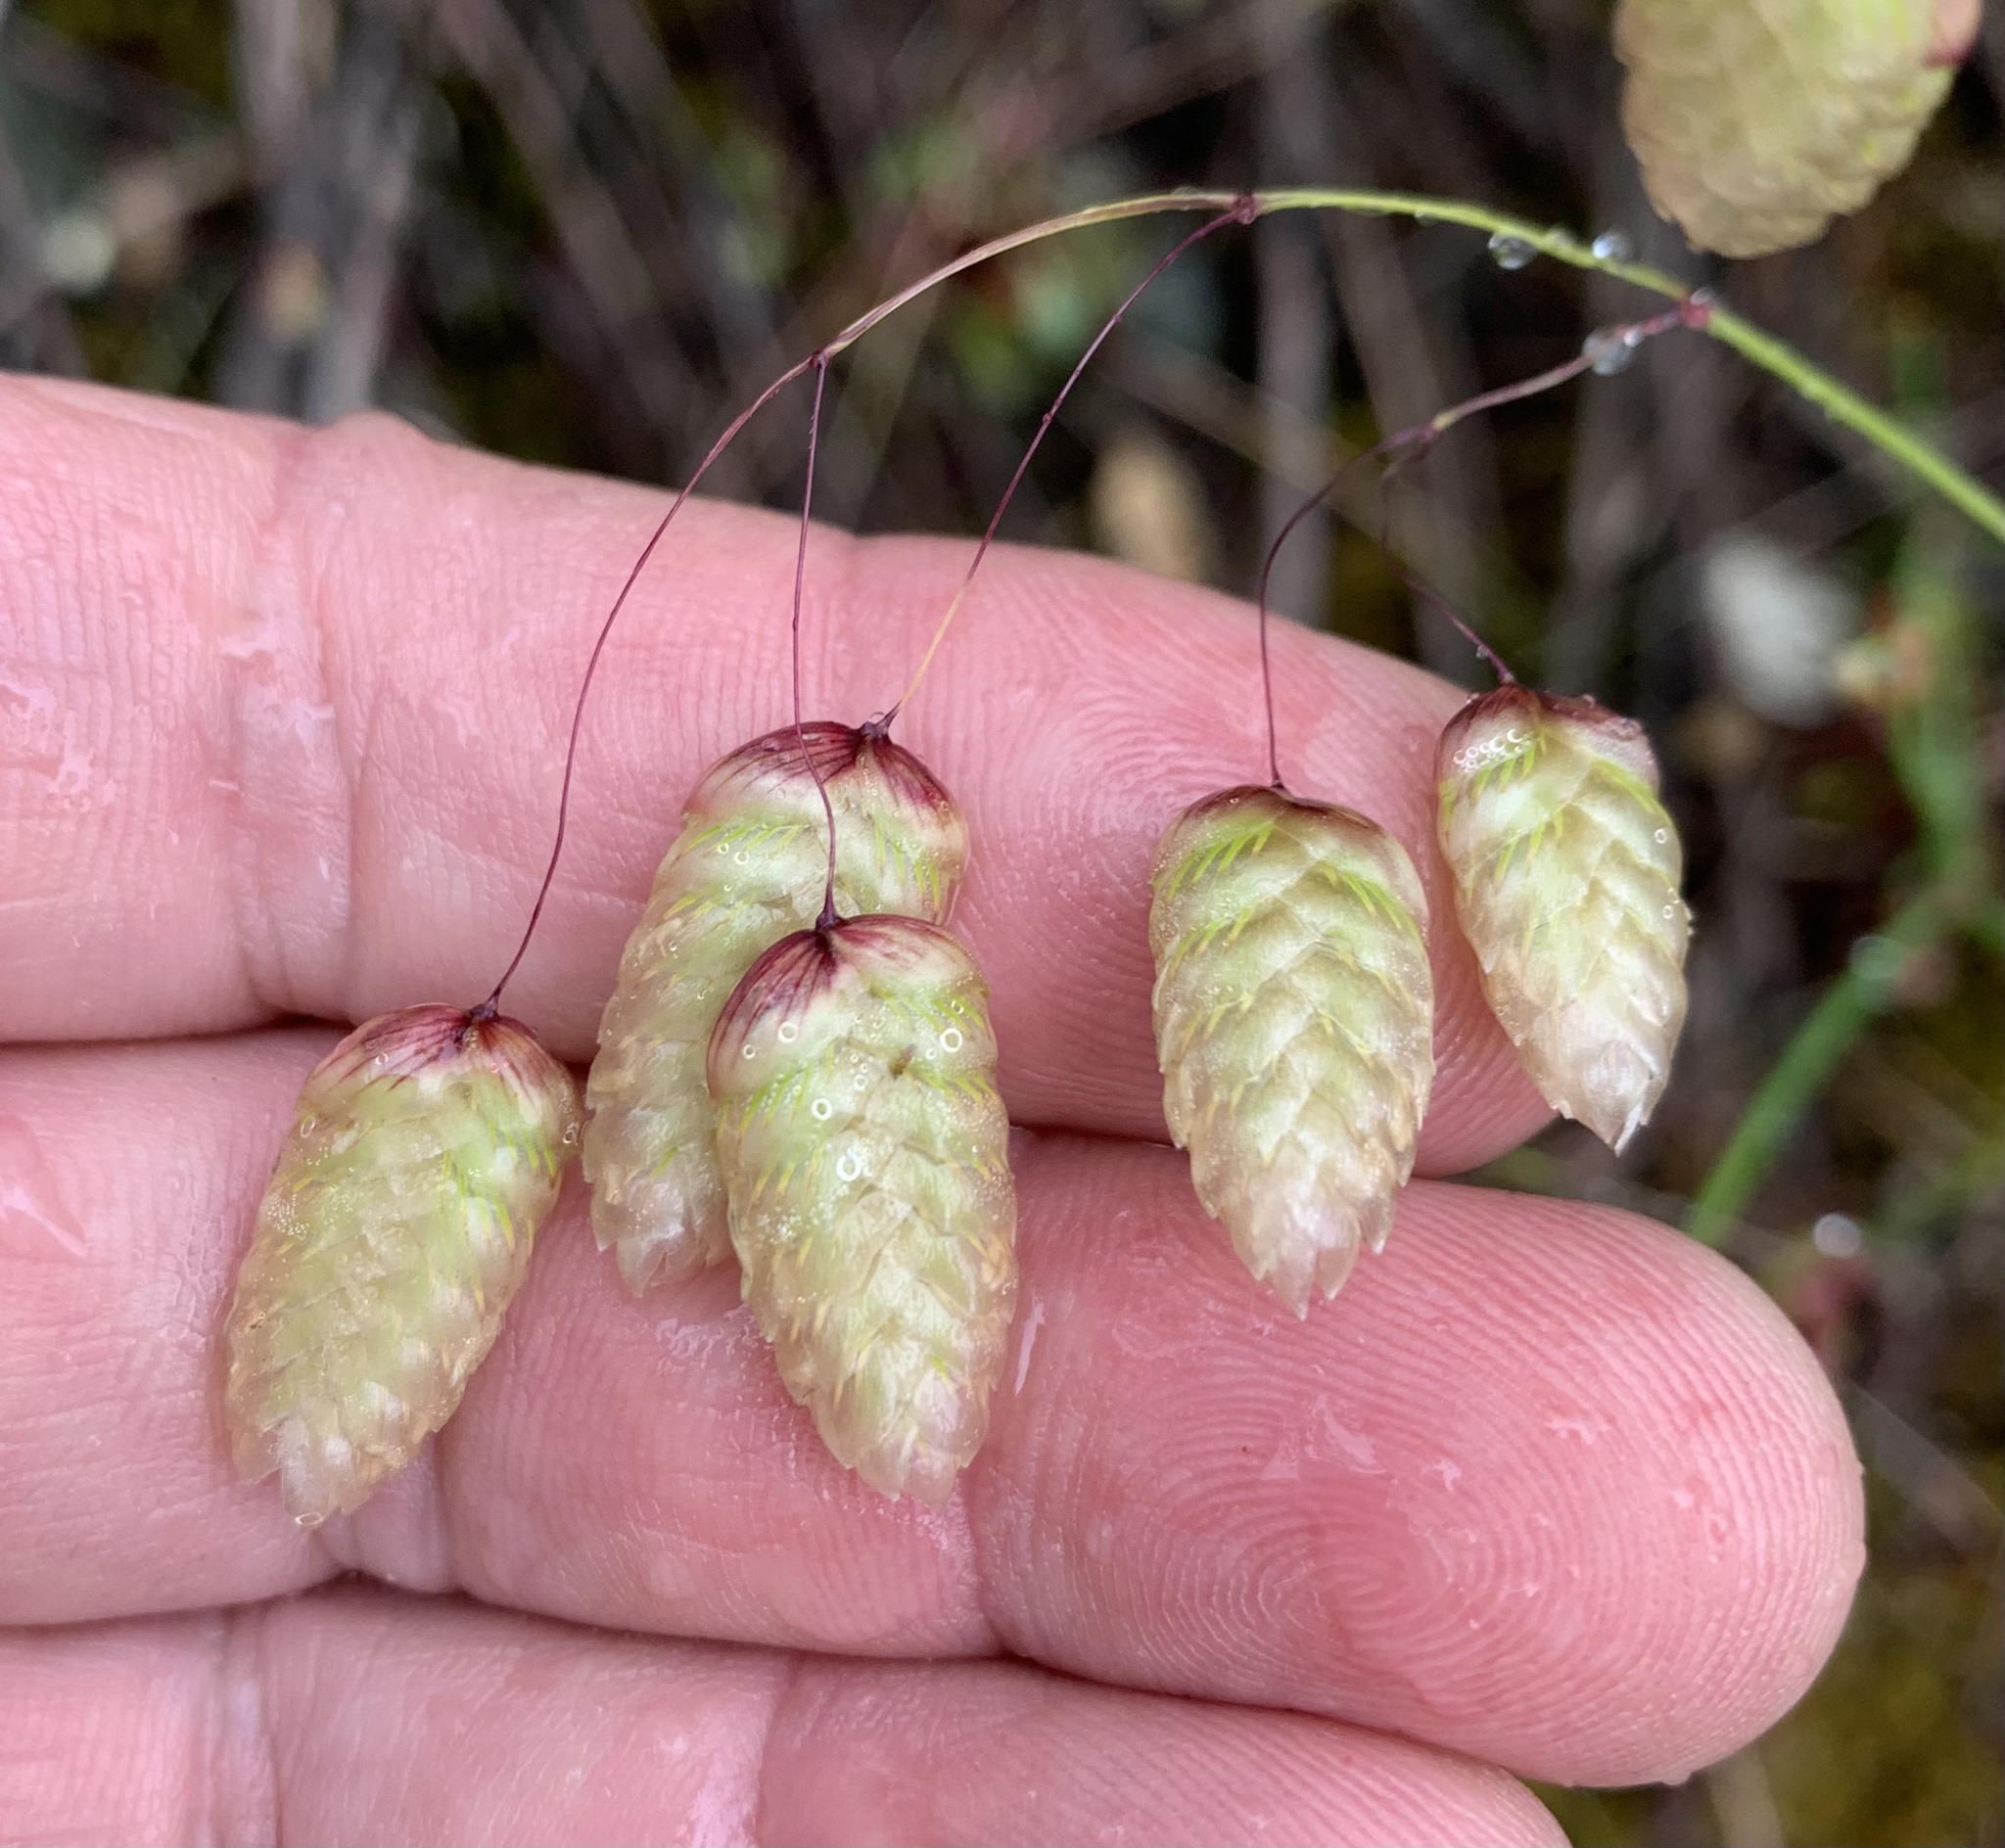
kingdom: Plantae
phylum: Tracheophyta
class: Liliopsida
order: Poales
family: Poaceae
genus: Briza
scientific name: Briza maxima
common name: Big quakinggrass
